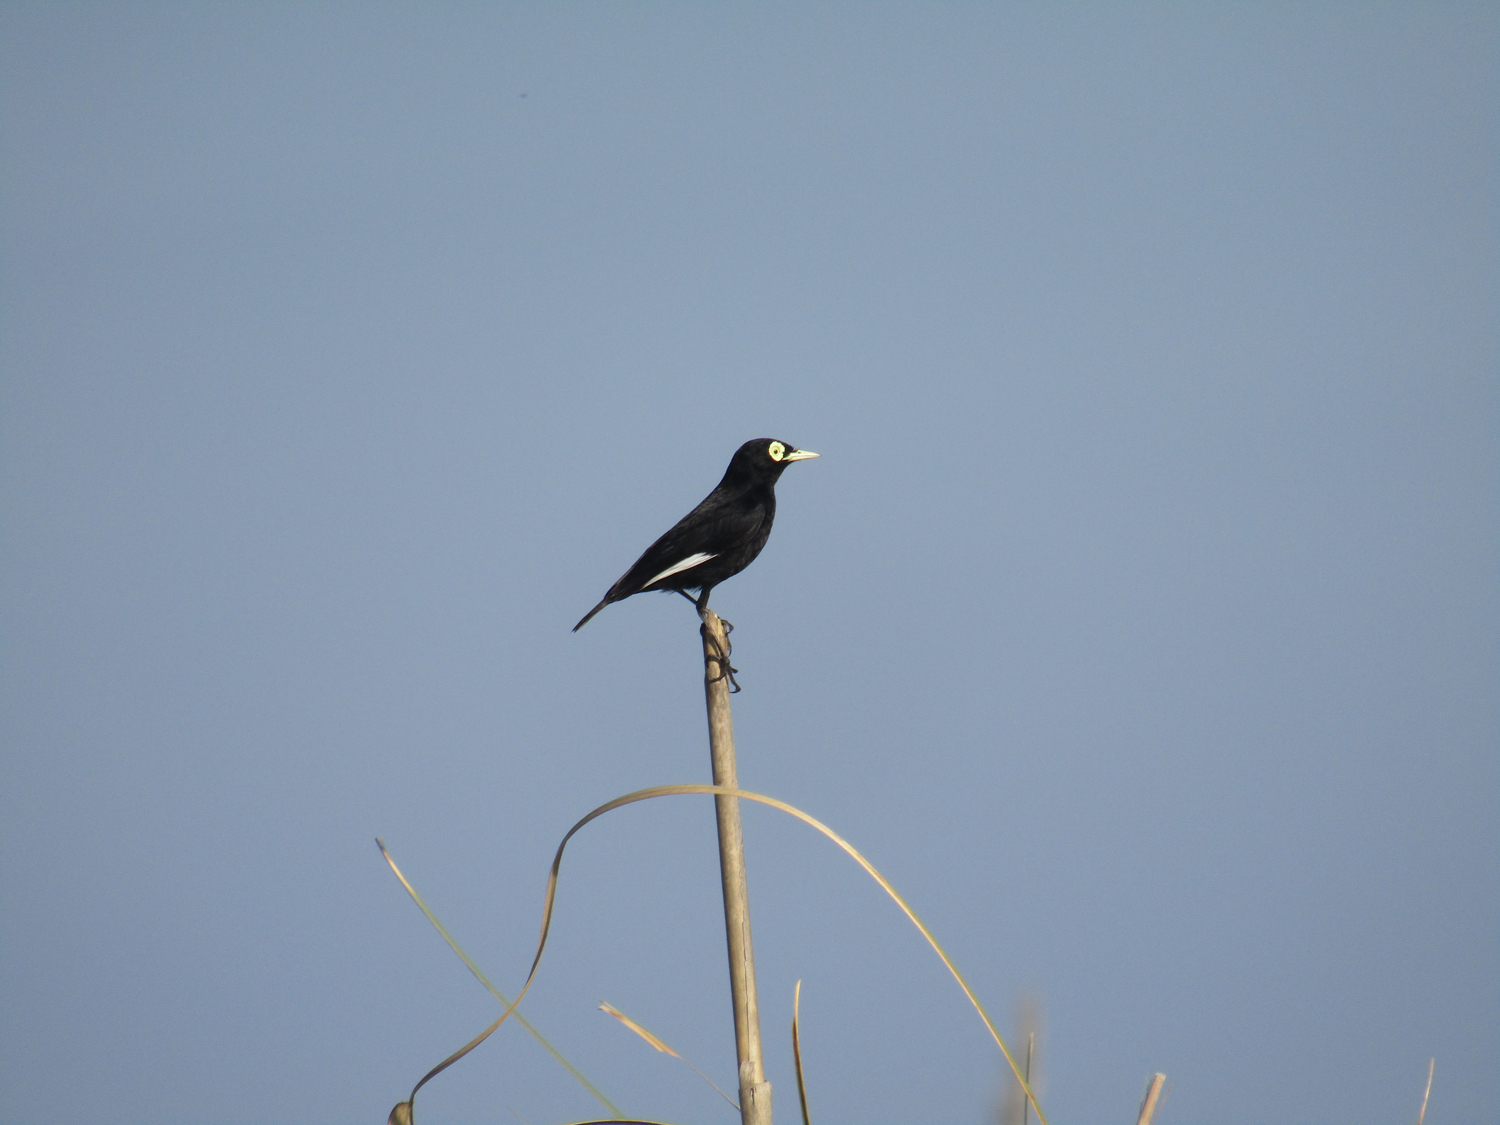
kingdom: Animalia
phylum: Chordata
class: Aves
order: Passeriformes
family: Tyrannidae
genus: Hymenops
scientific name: Hymenops perspicillatus
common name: Spectacled tyrant
